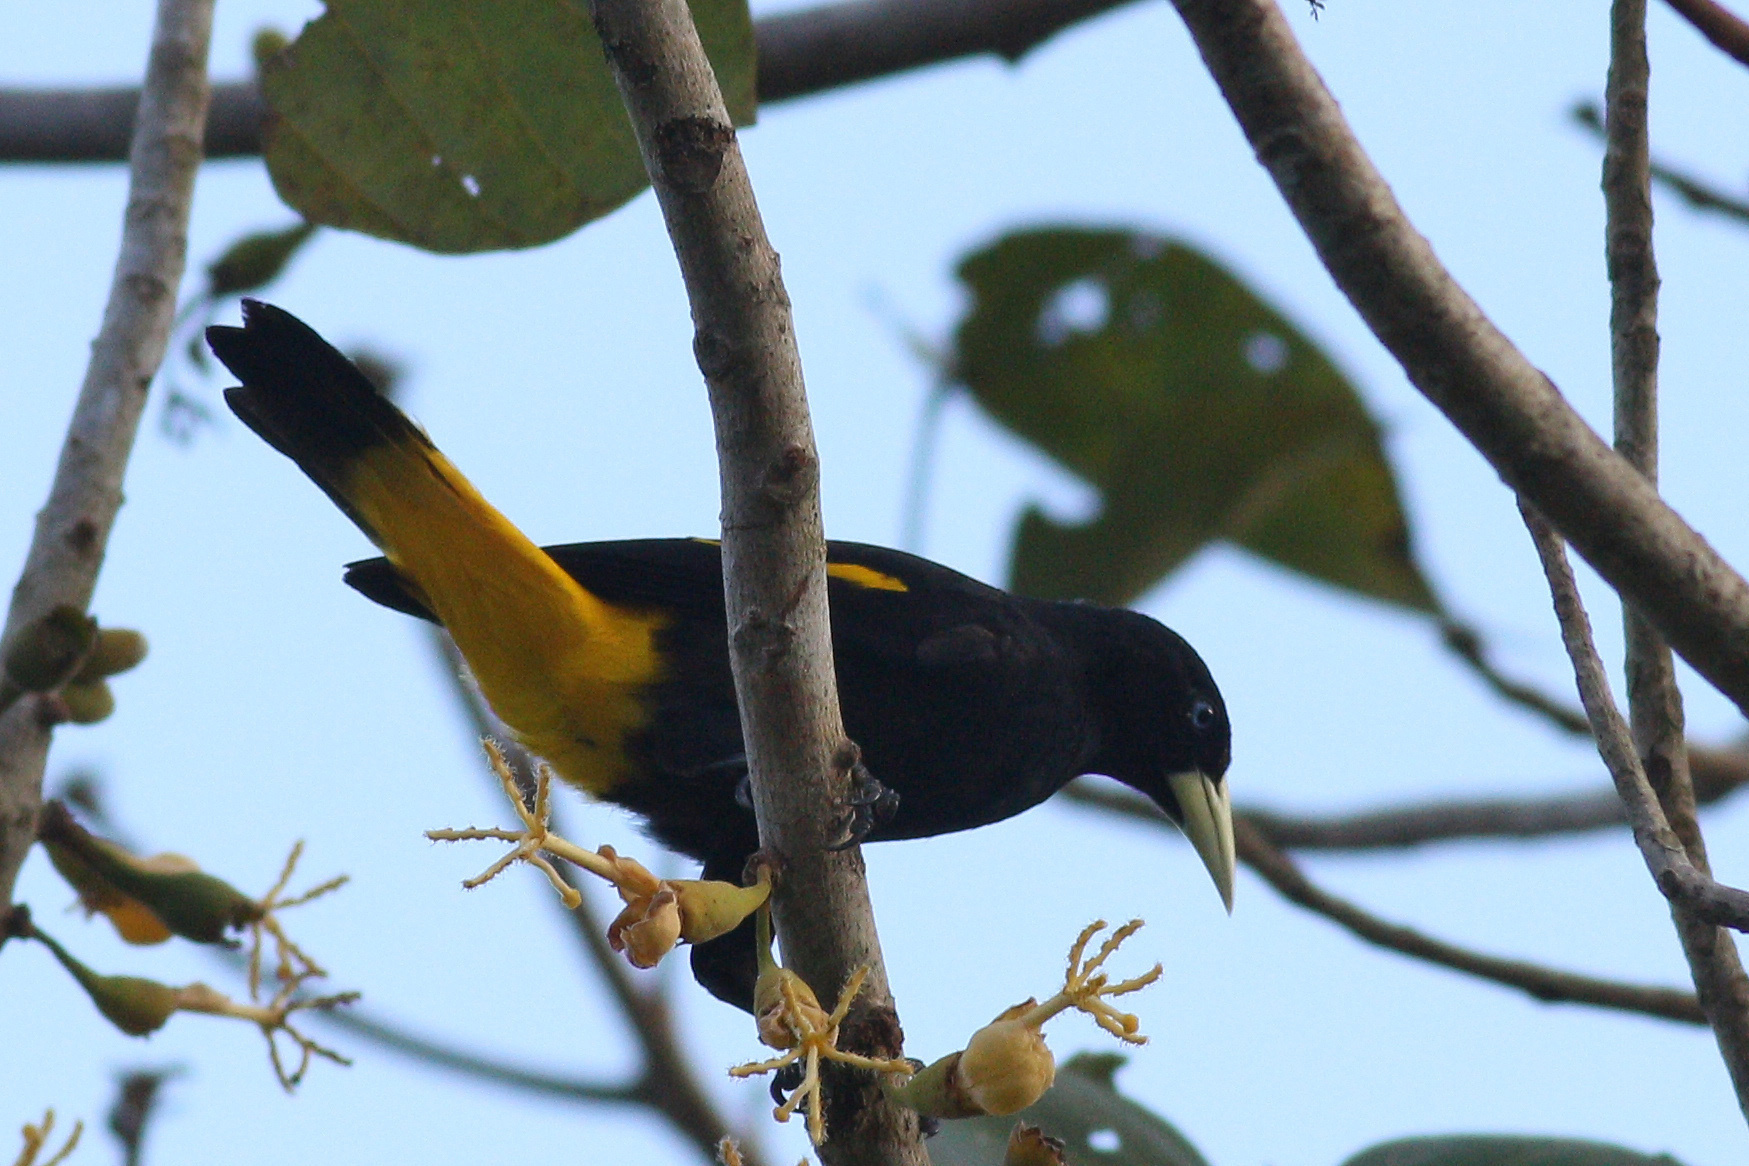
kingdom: Animalia
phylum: Chordata
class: Aves
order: Passeriformes
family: Icteridae
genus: Cacicus
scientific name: Cacicus cela
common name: Yellow-rumped cacique
